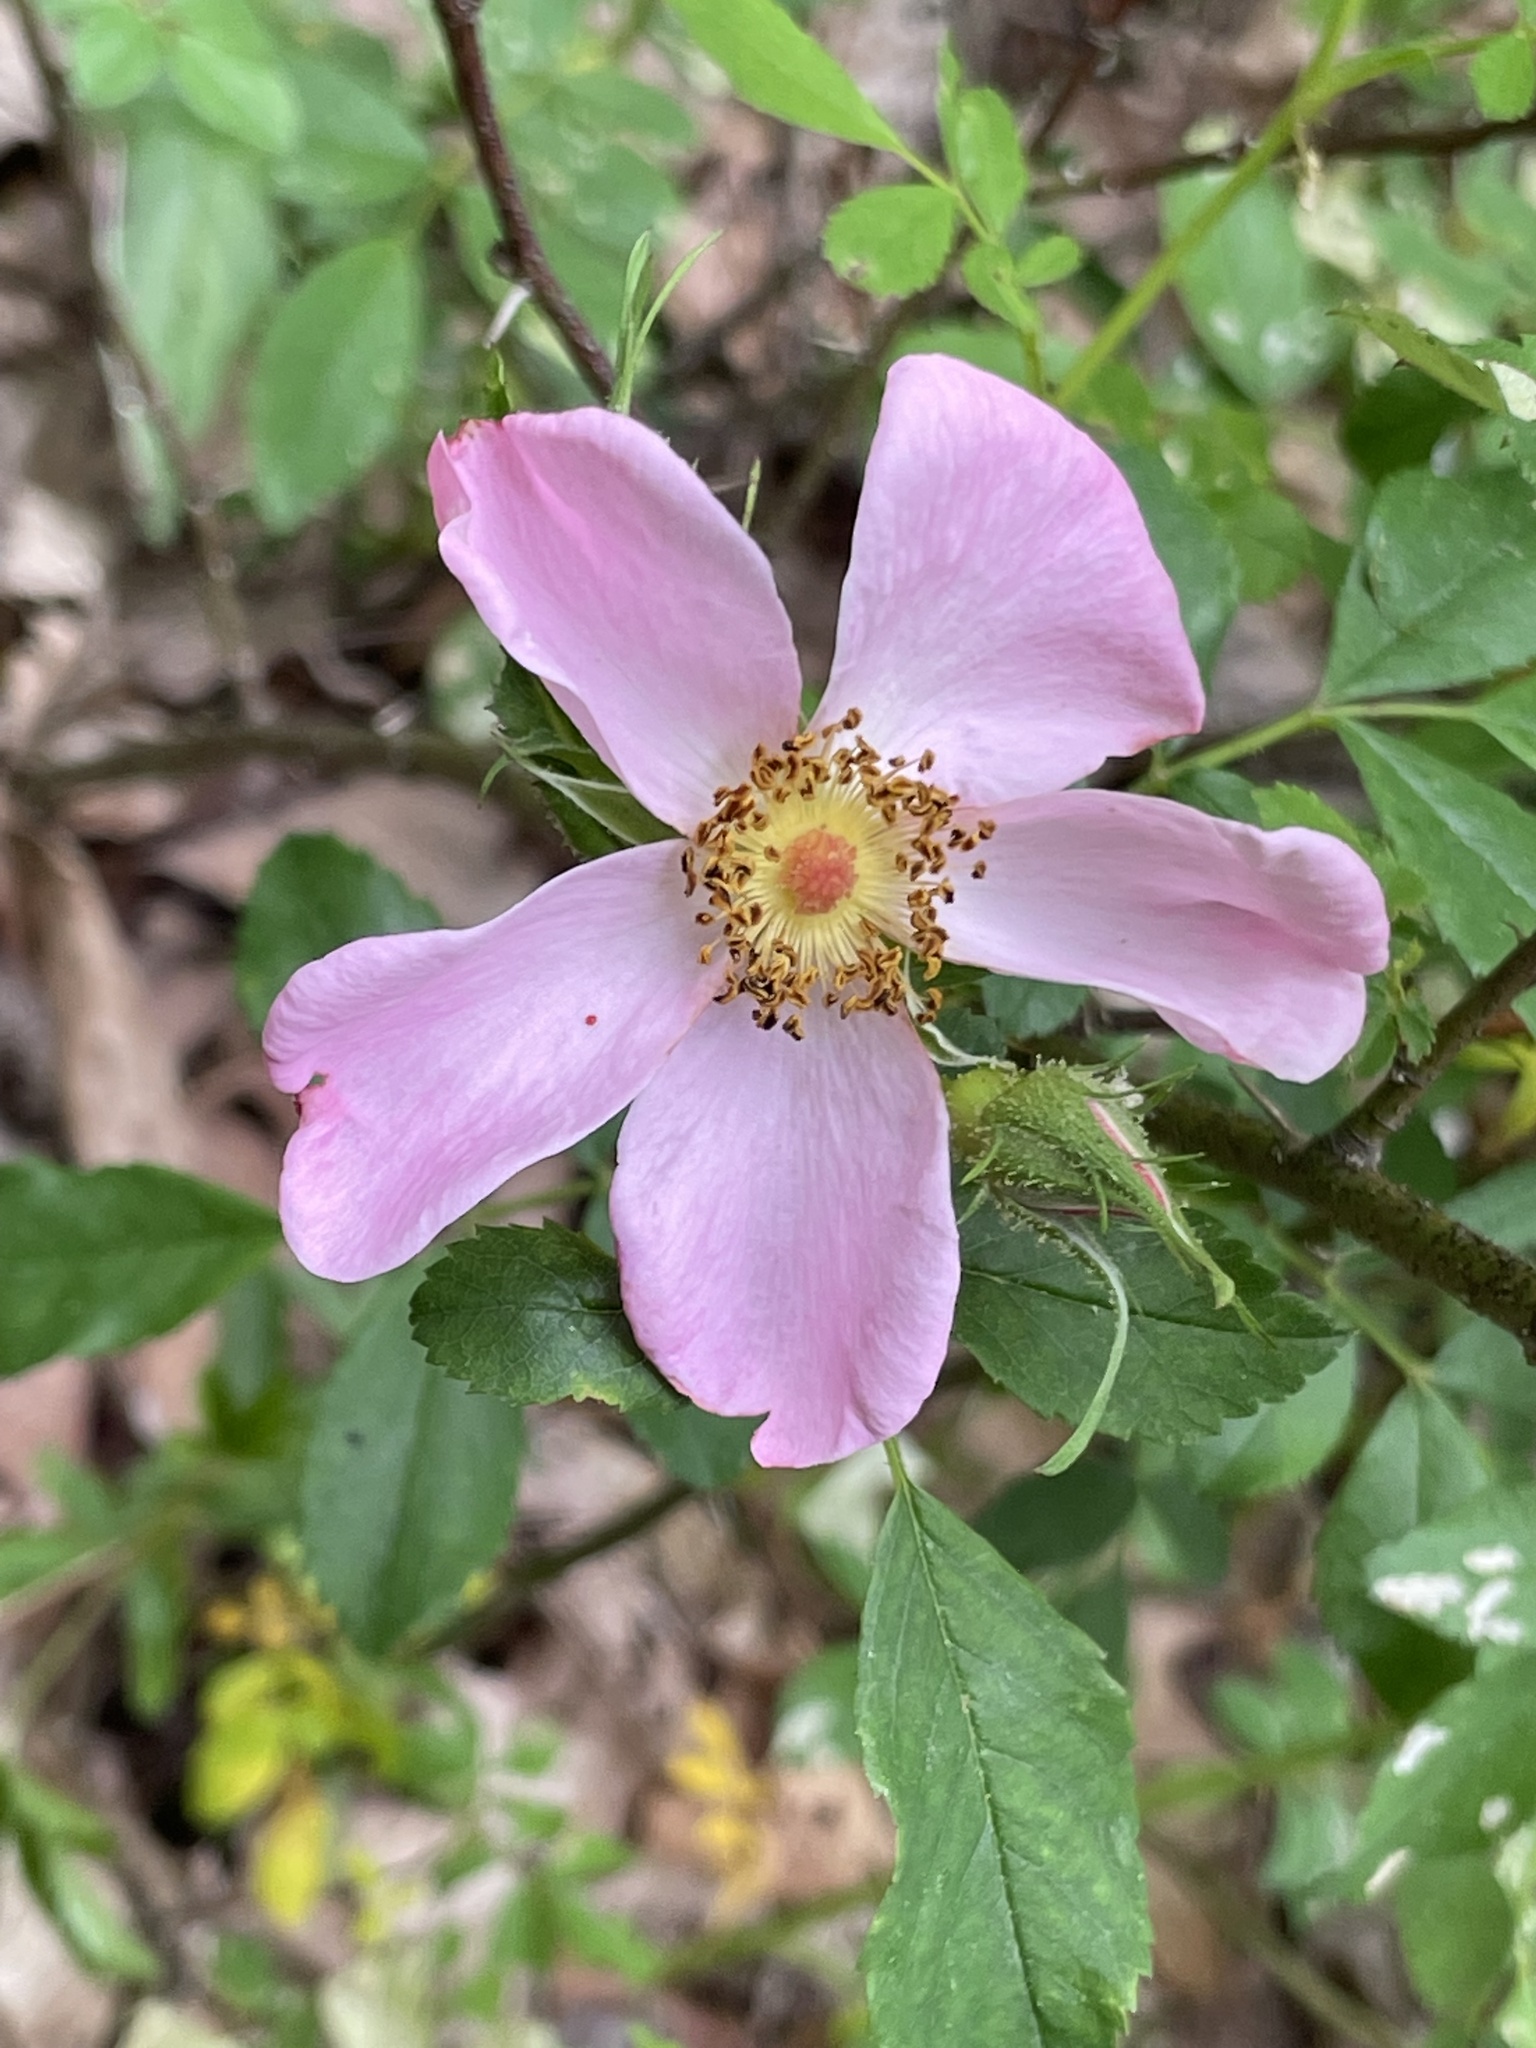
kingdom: Plantae
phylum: Tracheophyta
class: Magnoliopsida
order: Rosales
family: Rosaceae
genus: Rosa
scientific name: Rosa carolina
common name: Pasture rose
